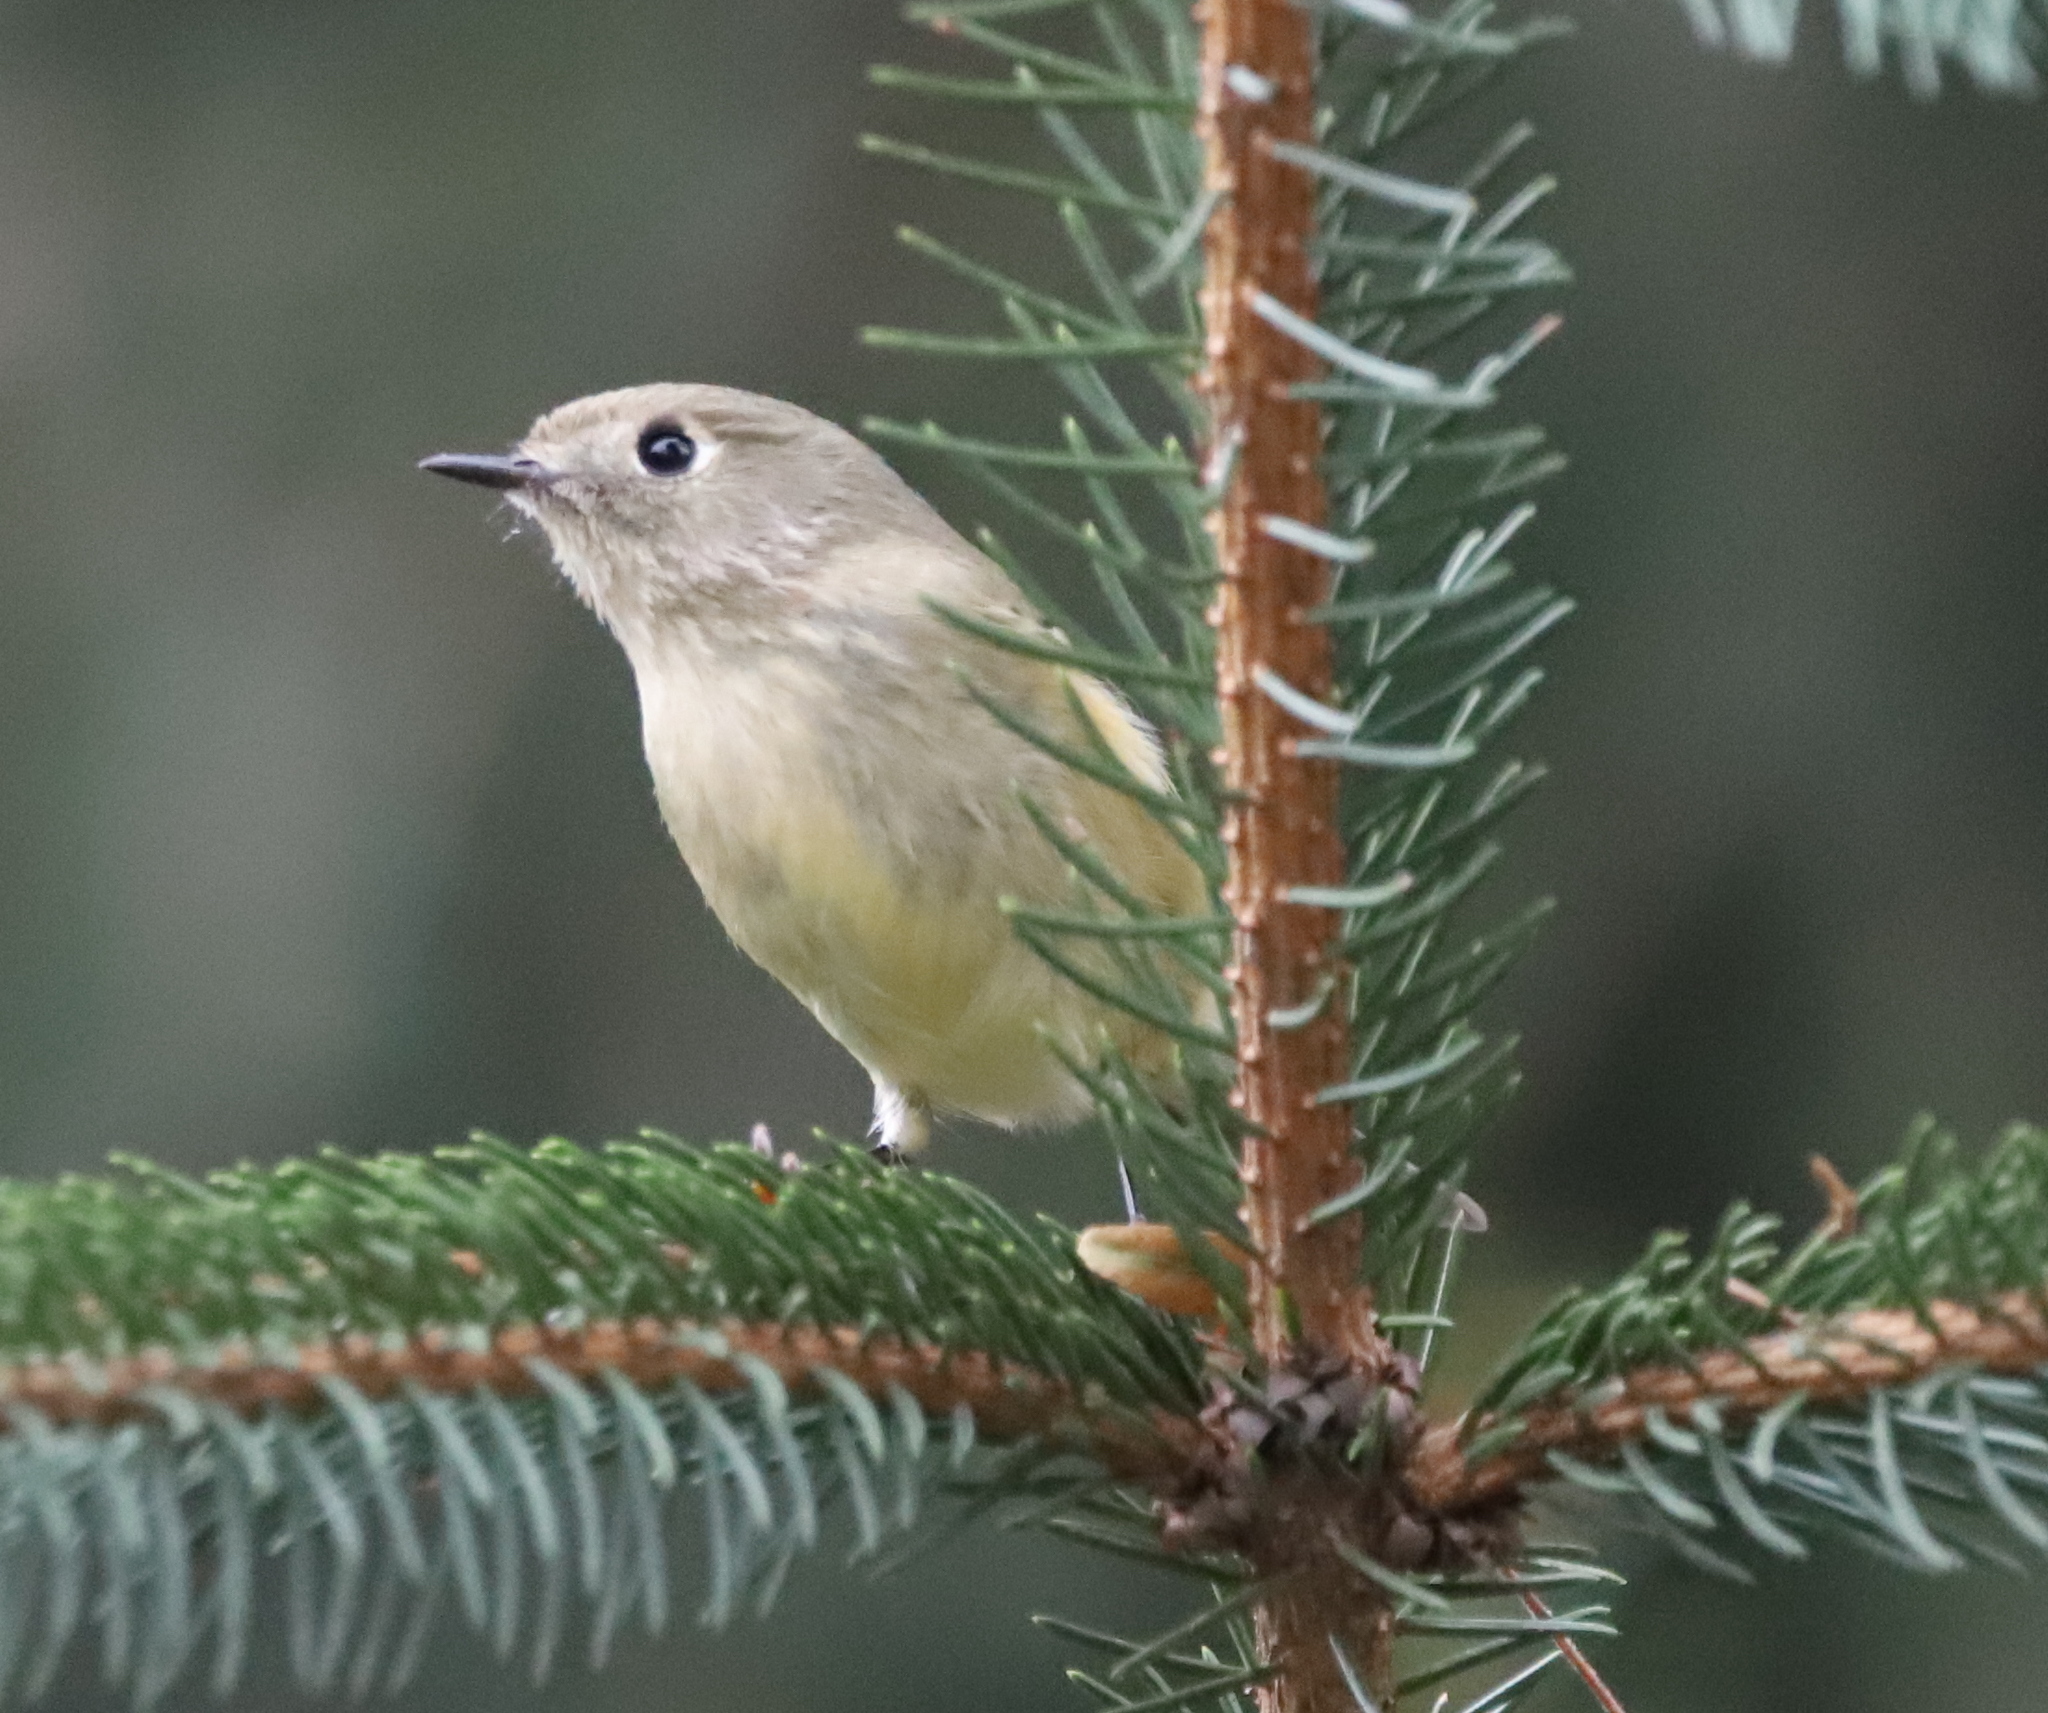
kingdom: Animalia
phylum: Chordata
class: Aves
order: Passeriformes
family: Regulidae
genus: Regulus
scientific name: Regulus calendula
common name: Ruby-crowned kinglet
